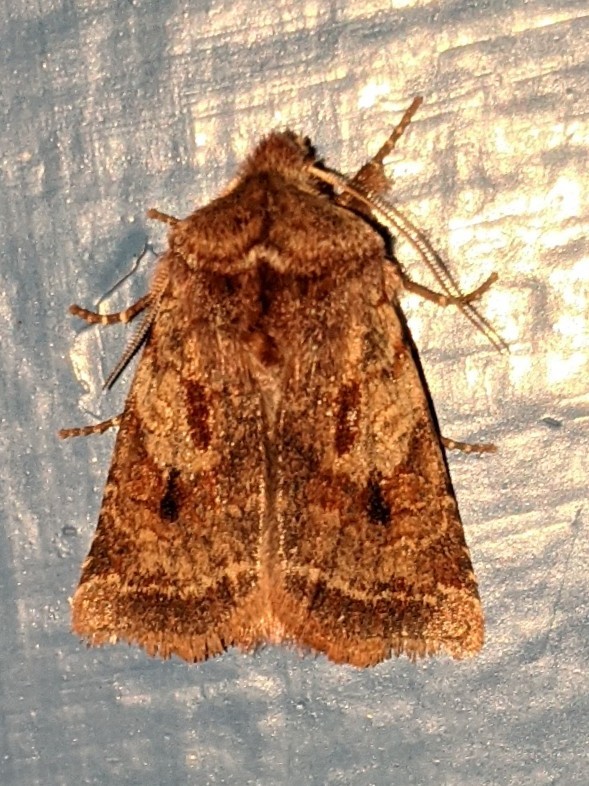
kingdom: Animalia
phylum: Arthropoda
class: Insecta
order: Lepidoptera
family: Noctuidae
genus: Cerastis
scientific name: Cerastis salicarum
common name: Willow dart
